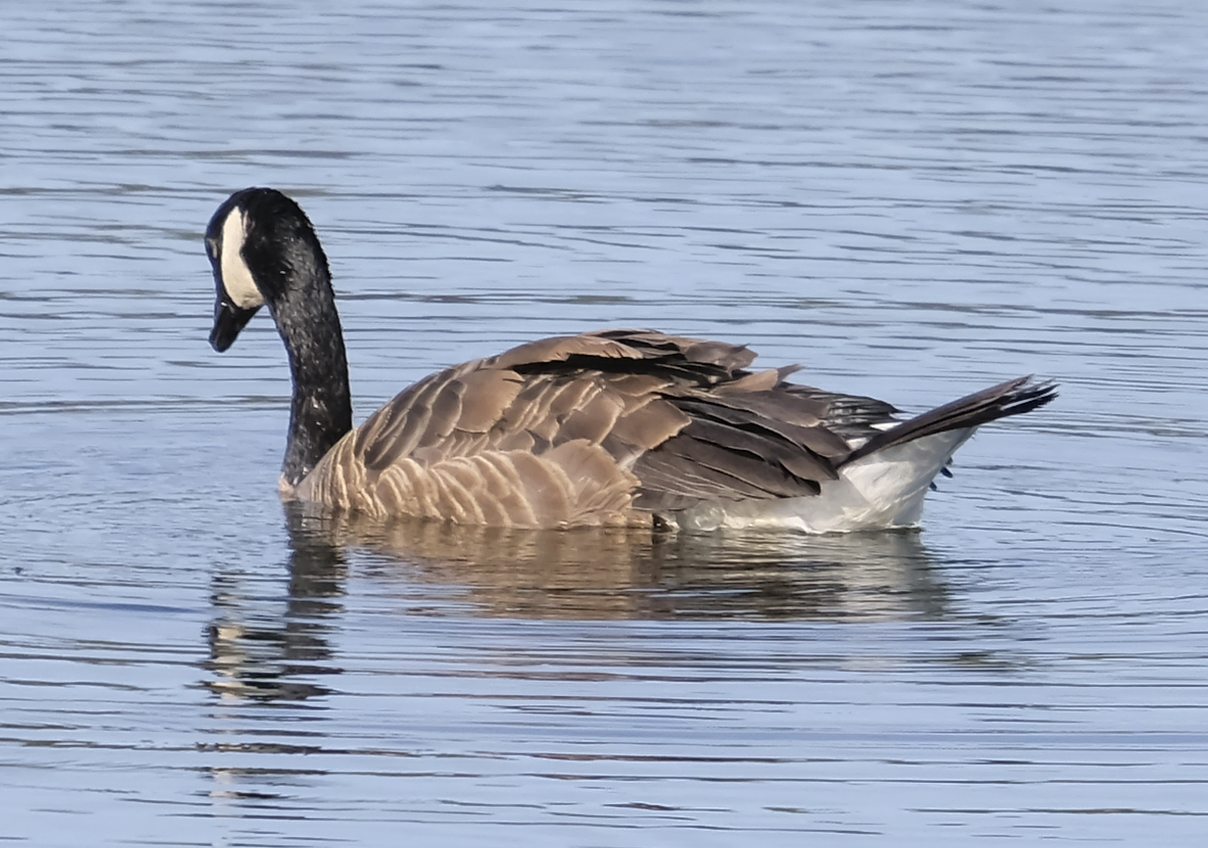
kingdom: Animalia
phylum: Chordata
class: Aves
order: Anseriformes
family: Anatidae
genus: Branta
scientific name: Branta canadensis
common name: Canada goose
